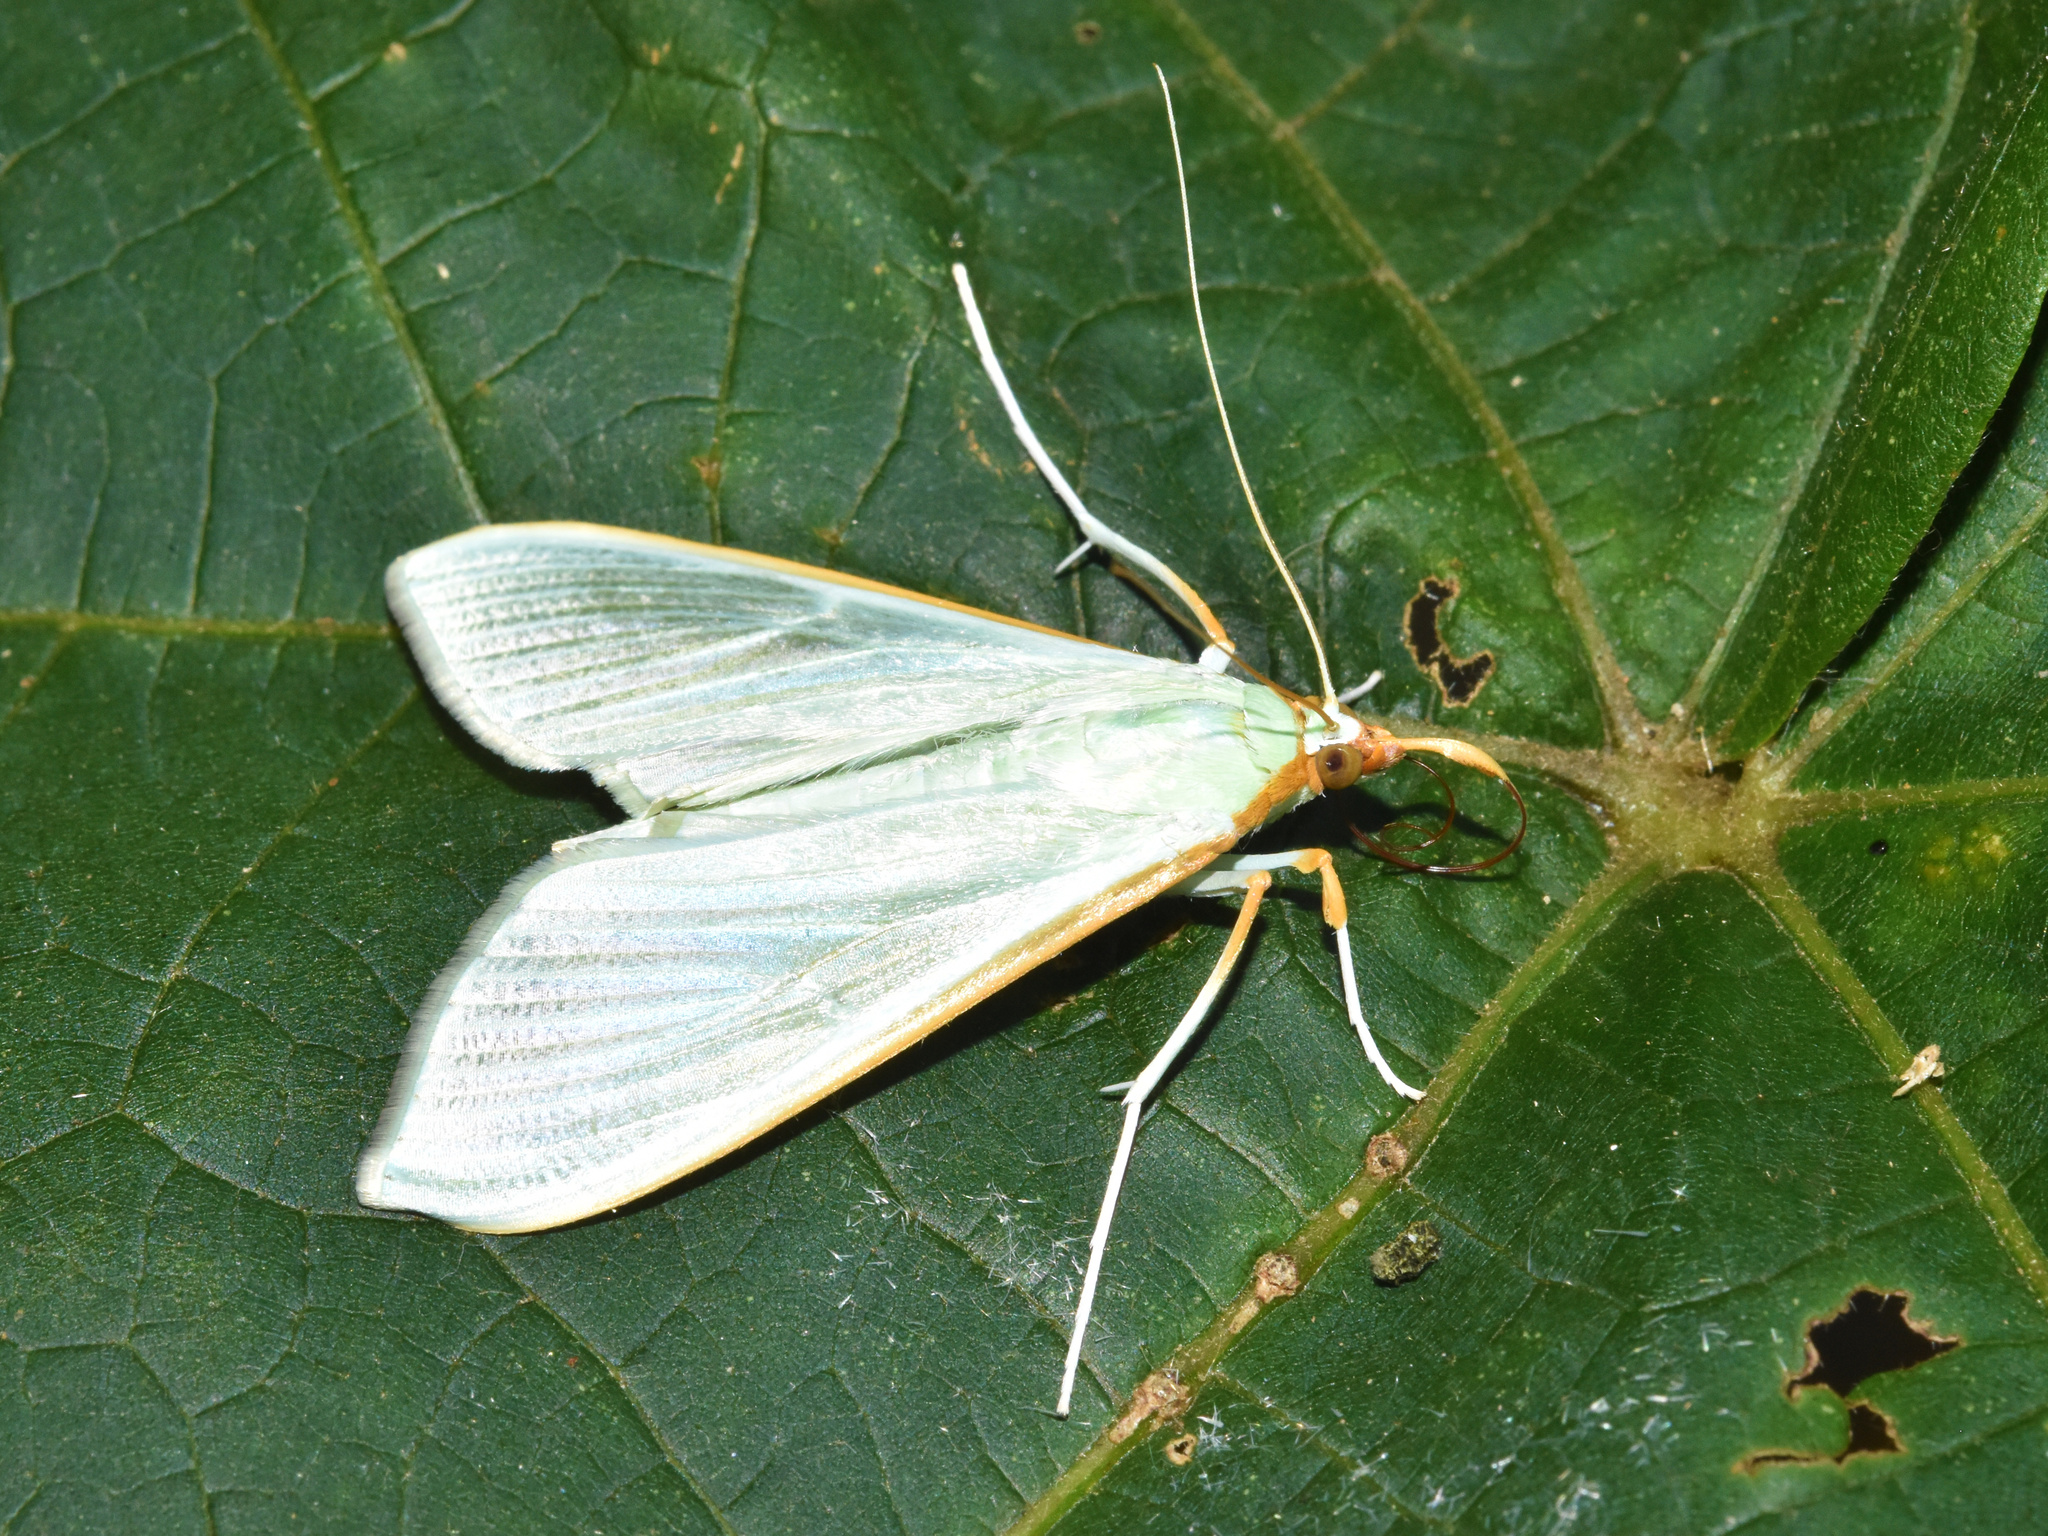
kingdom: Animalia
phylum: Arthropoda
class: Insecta
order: Lepidoptera
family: Crambidae
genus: Stemorrhages
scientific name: Stemorrhages sericea
